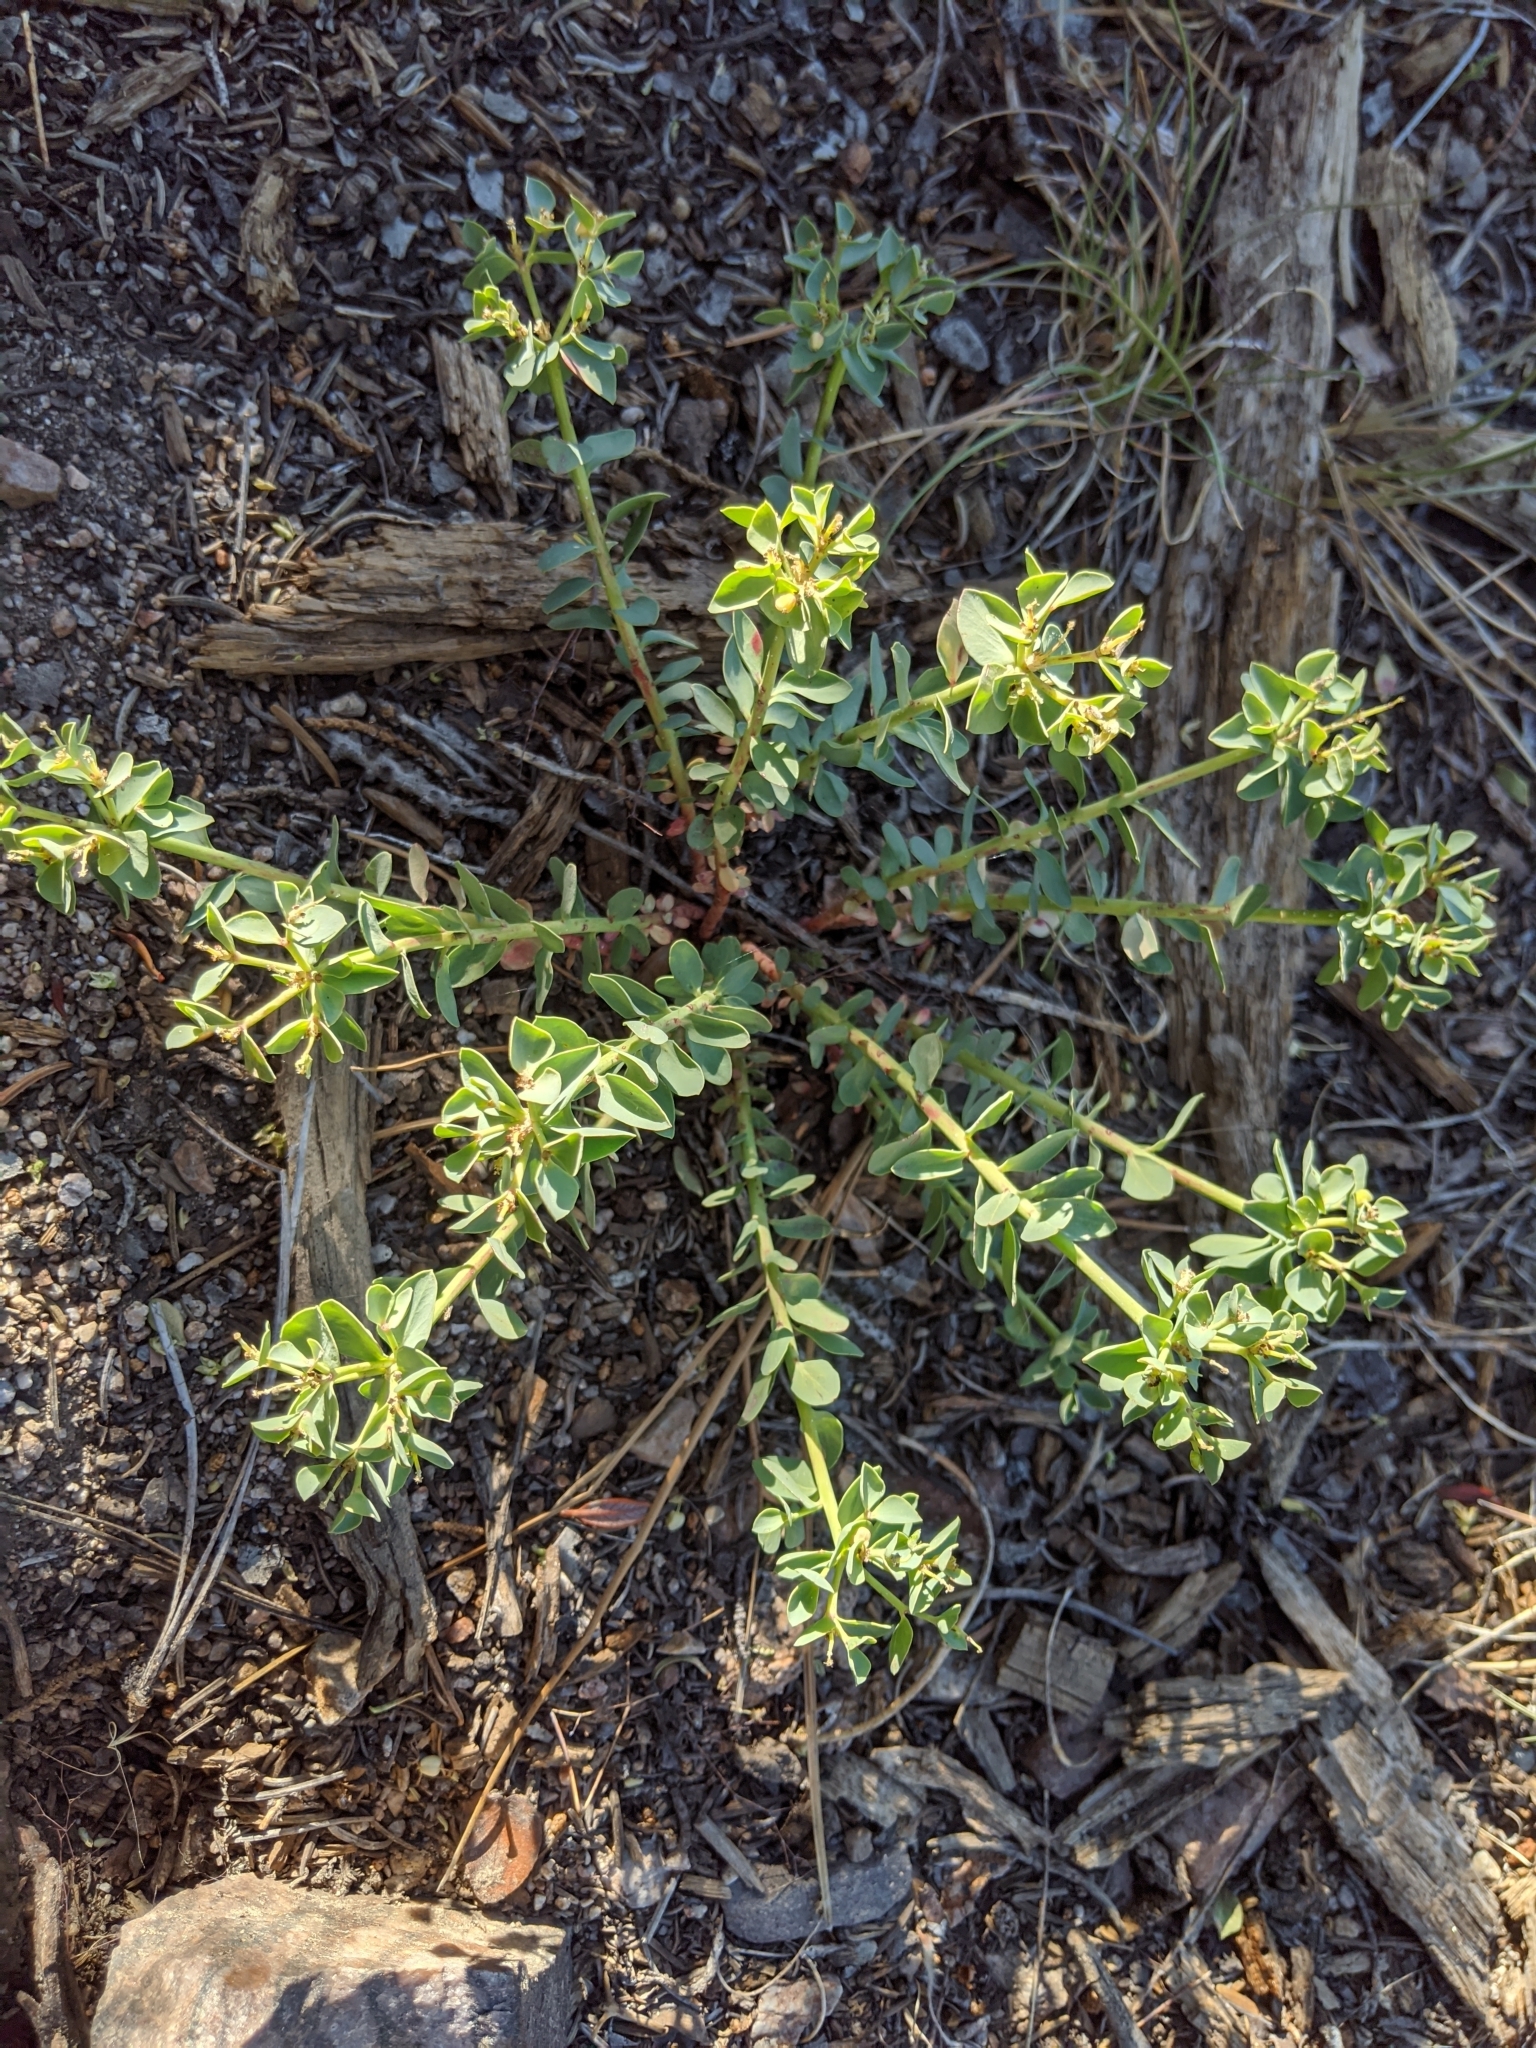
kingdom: Plantae
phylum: Tracheophyta
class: Magnoliopsida
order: Malpighiales
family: Euphorbiaceae
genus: Euphorbia
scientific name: Euphorbia lurida
